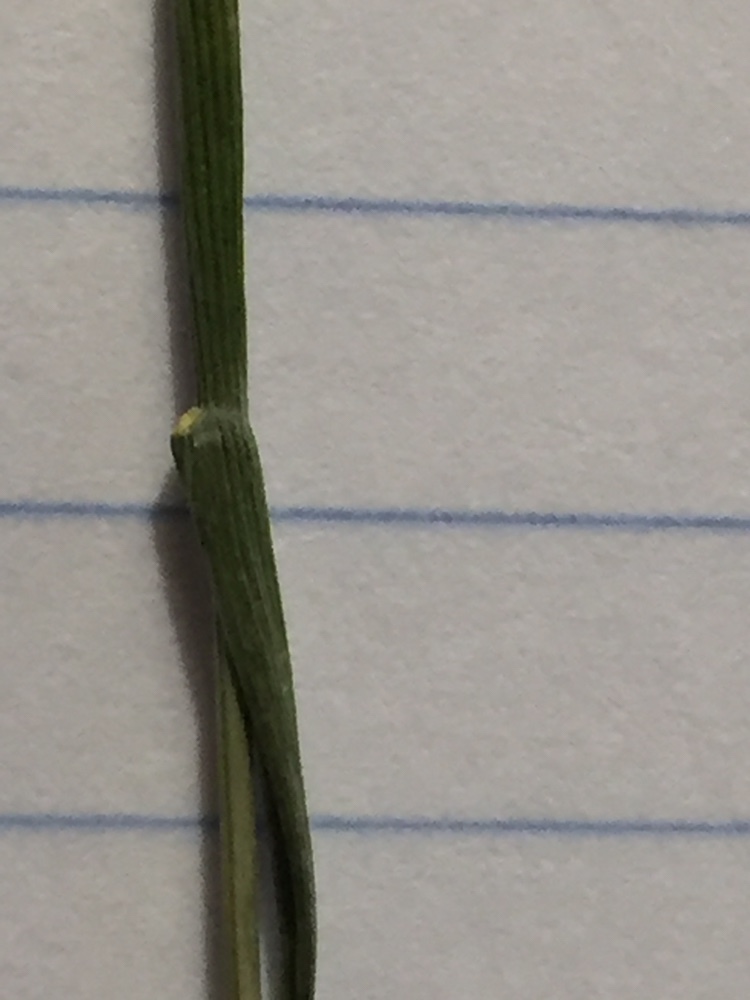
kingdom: Plantae
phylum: Tracheophyta
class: Liliopsida
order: Poales
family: Poaceae
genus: Anthoxanthum
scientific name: Anthoxanthum nitens
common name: Holy grass
